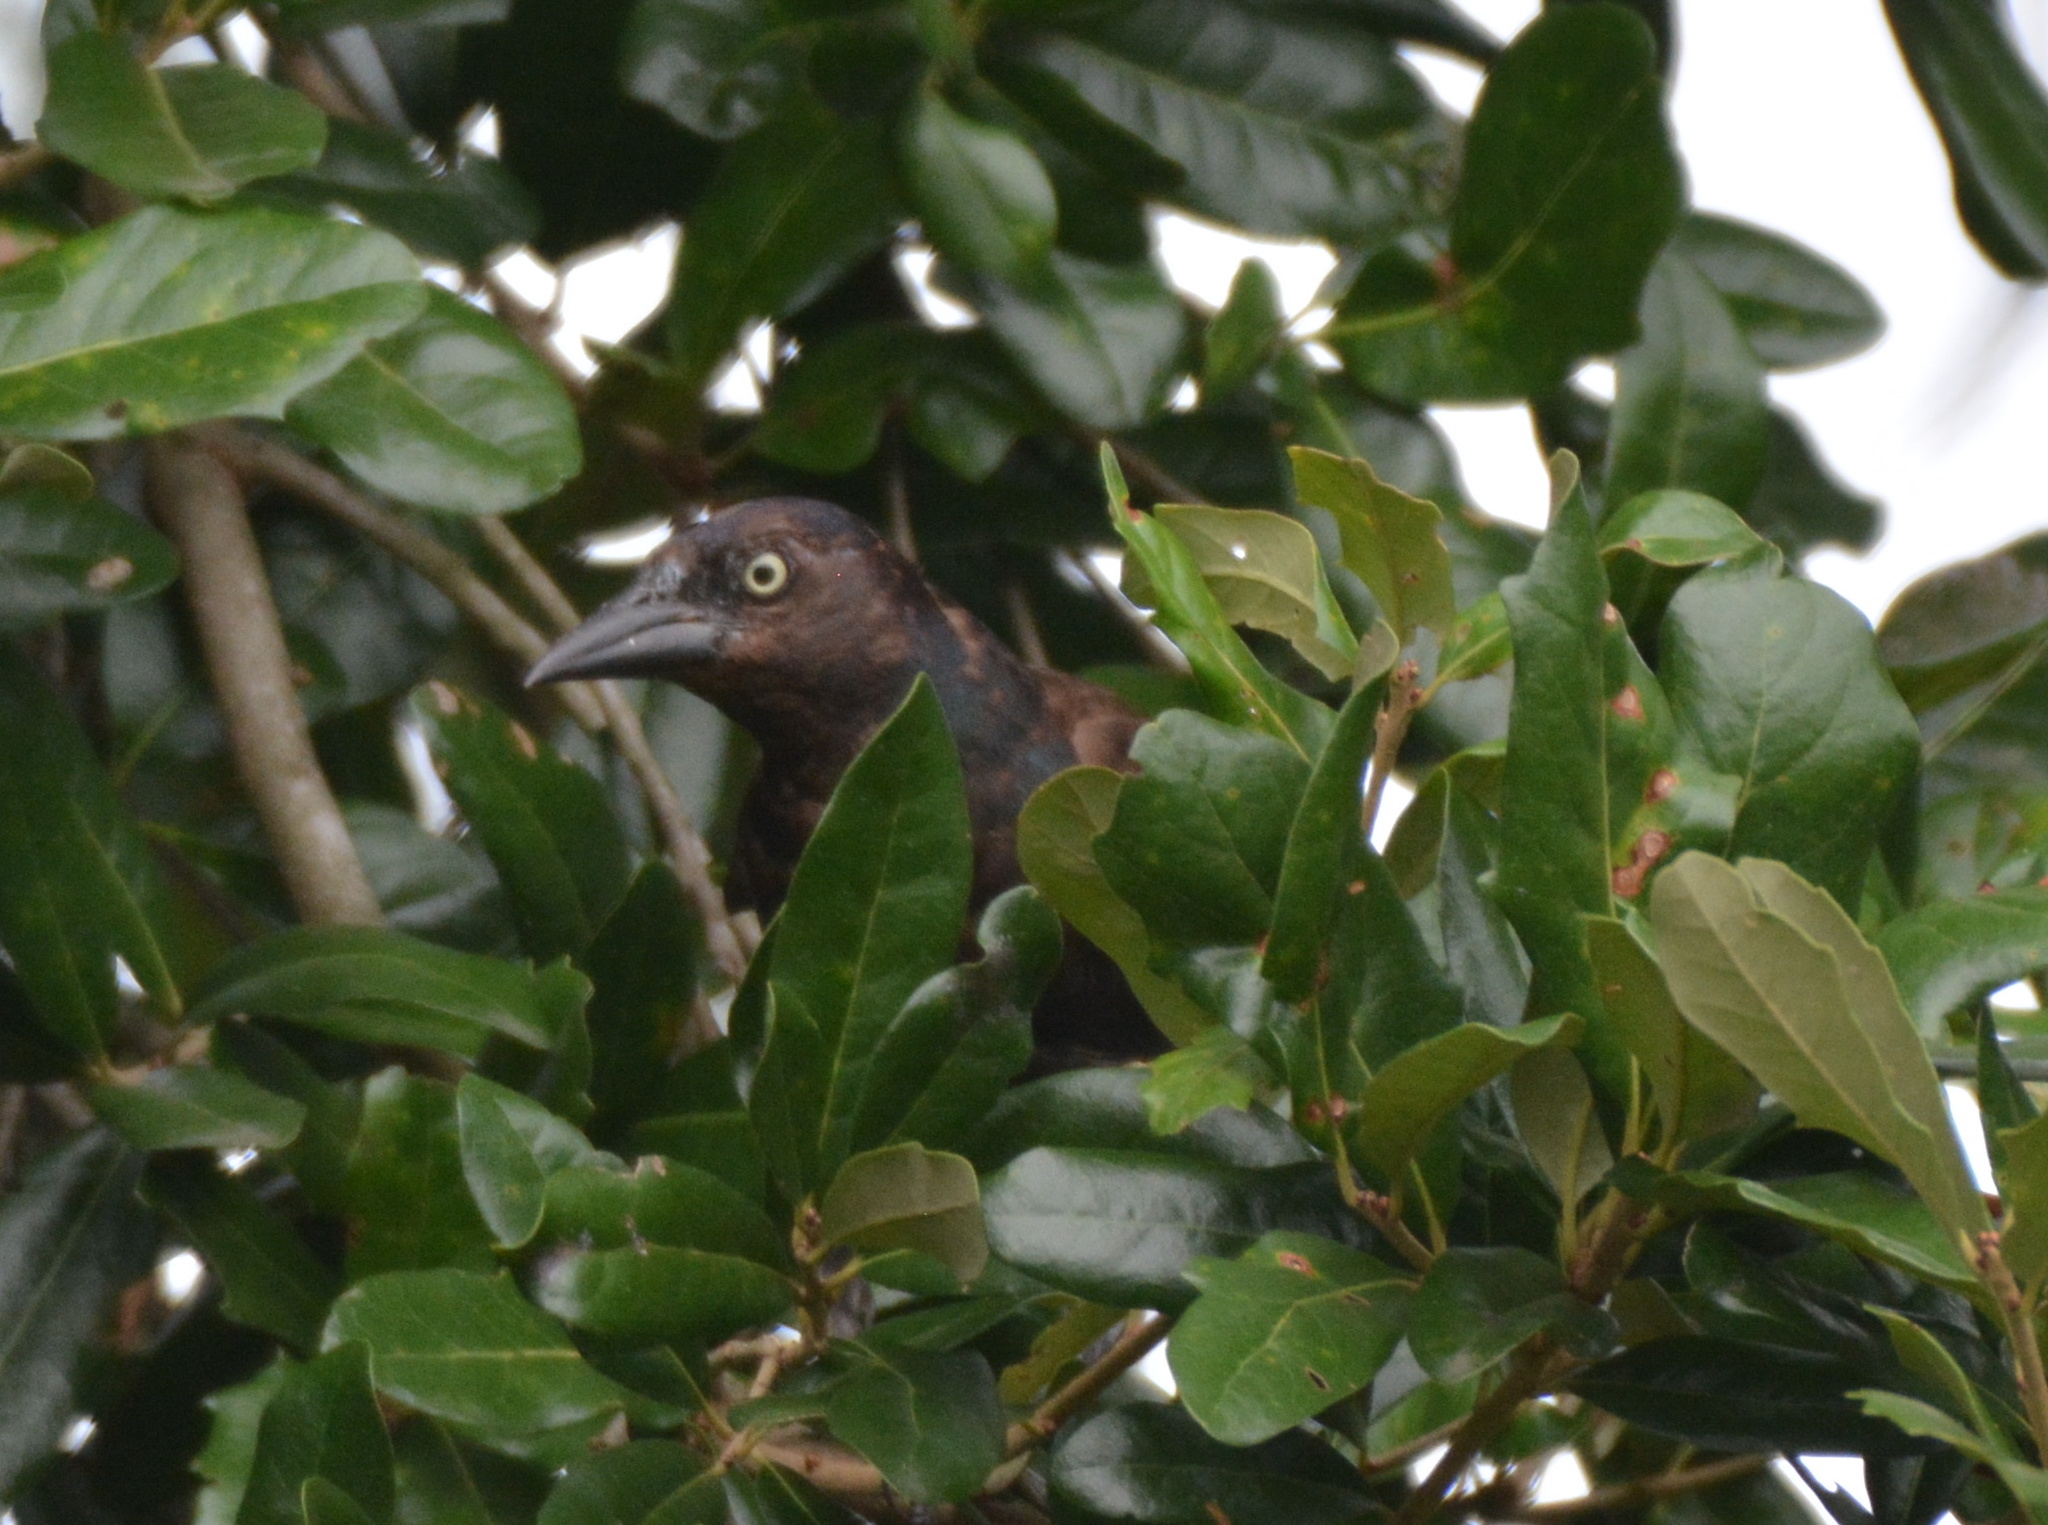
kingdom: Animalia
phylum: Chordata
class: Aves
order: Passeriformes
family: Icteridae
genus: Quiscalus
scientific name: Quiscalus quiscula
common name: Common grackle
